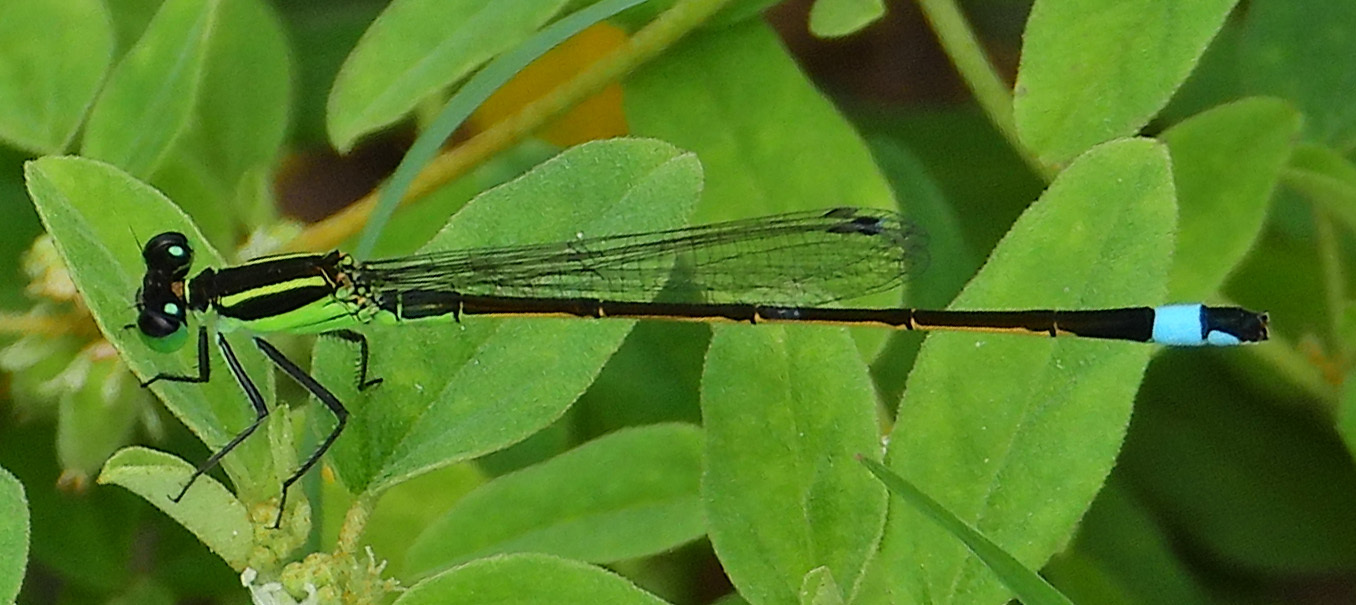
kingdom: Animalia
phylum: Arthropoda
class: Insecta
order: Odonata
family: Coenagrionidae
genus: Ischnura
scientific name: Ischnura ramburii
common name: Rambur's forktail
